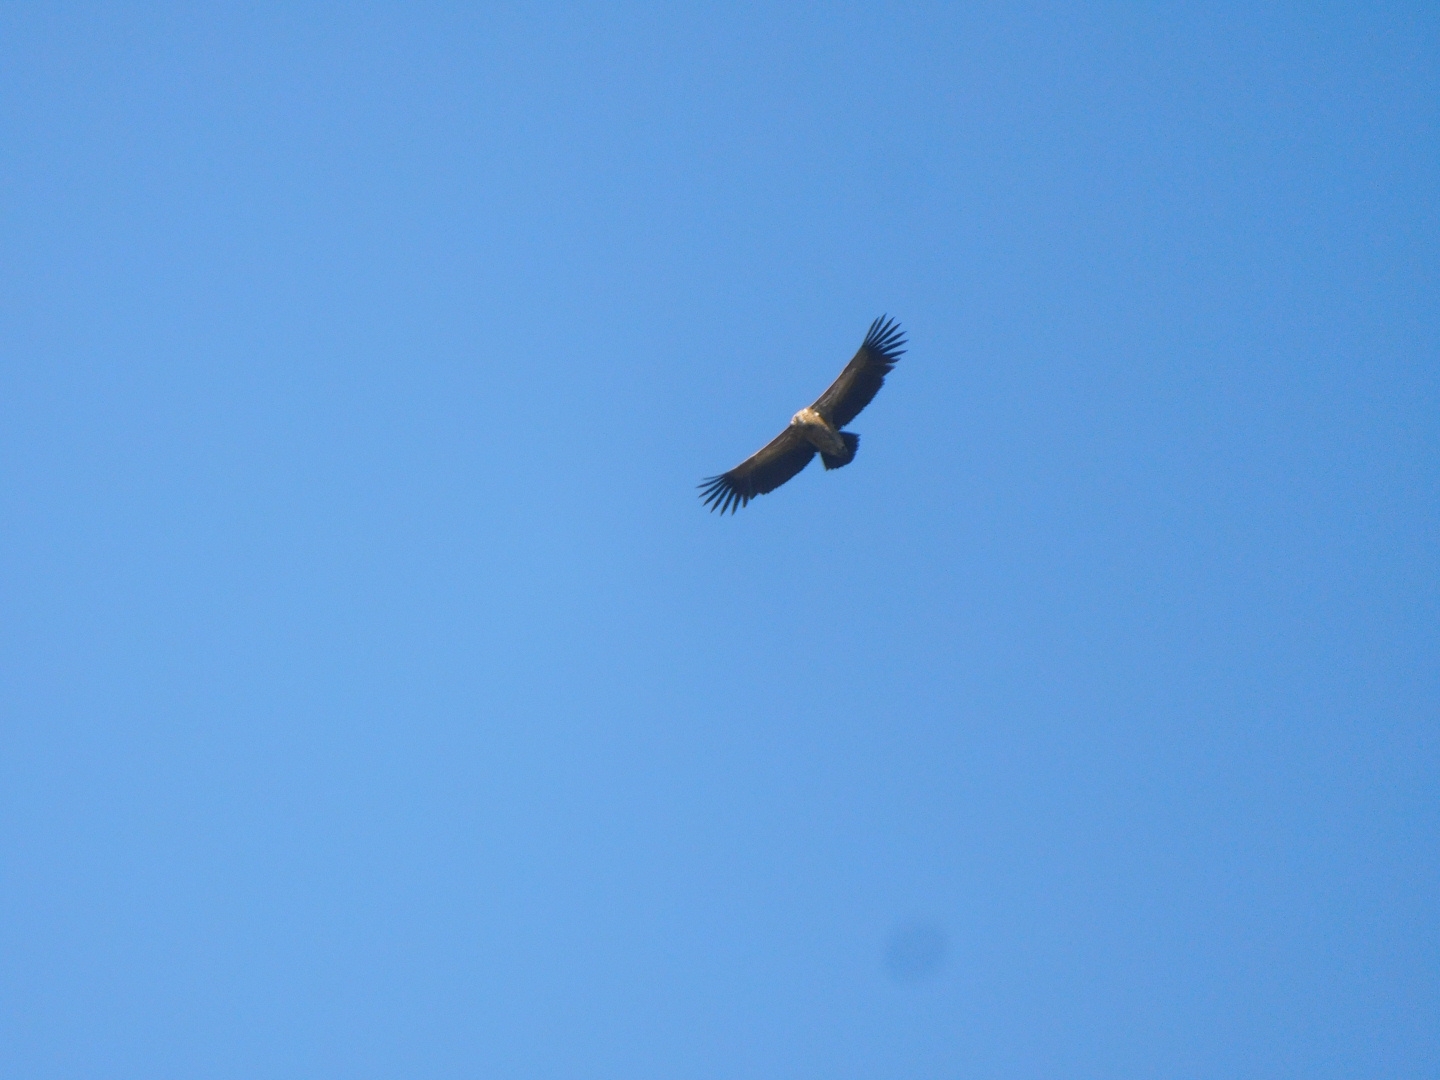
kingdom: Animalia
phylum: Chordata
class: Aves
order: Accipitriformes
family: Accipitridae
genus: Gyps
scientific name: Gyps himalayensis
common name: Himalayan griffon
